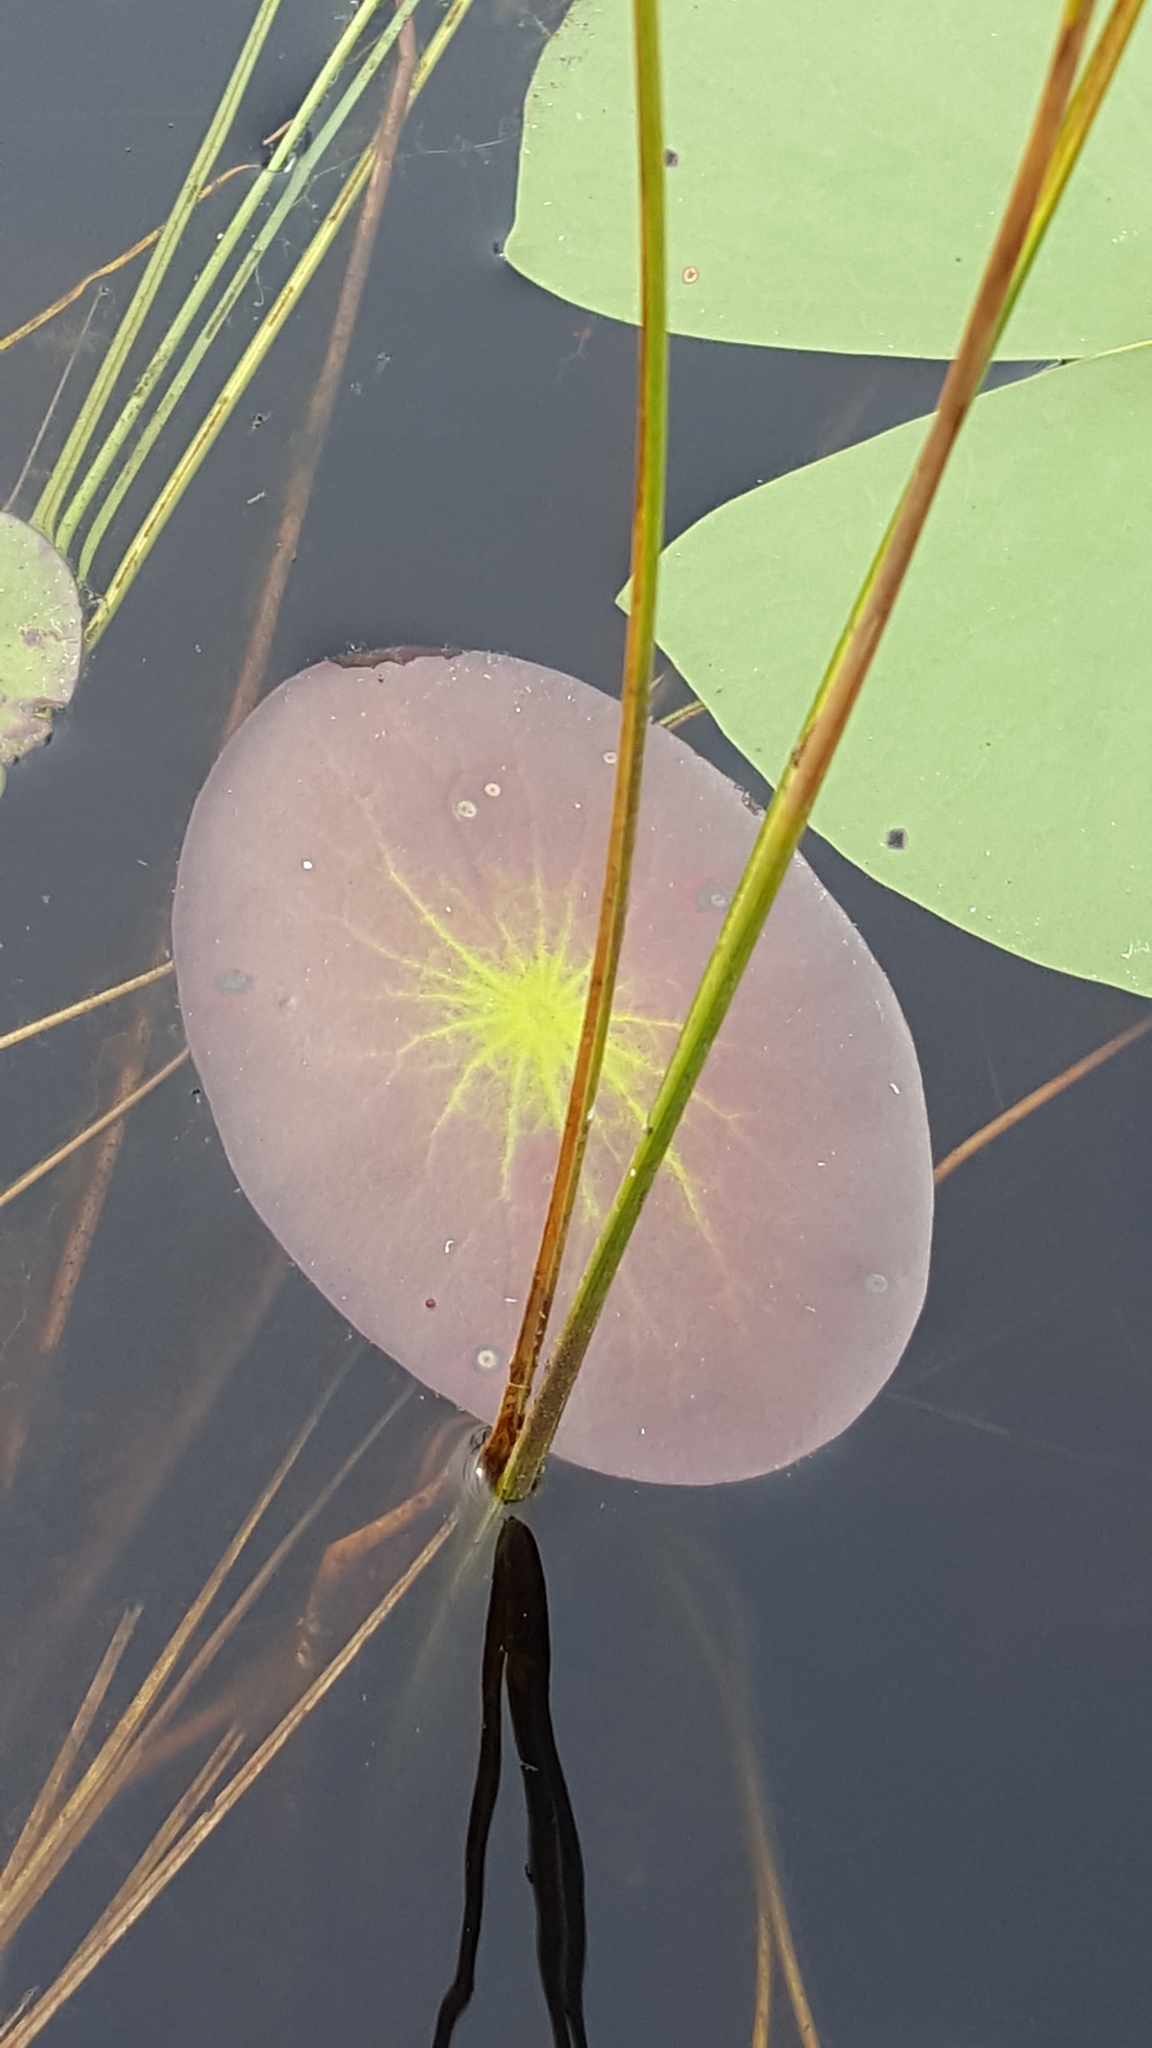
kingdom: Plantae
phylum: Tracheophyta
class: Magnoliopsida
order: Nymphaeales
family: Cabombaceae
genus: Brasenia
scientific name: Brasenia schreberi
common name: Water-shield
